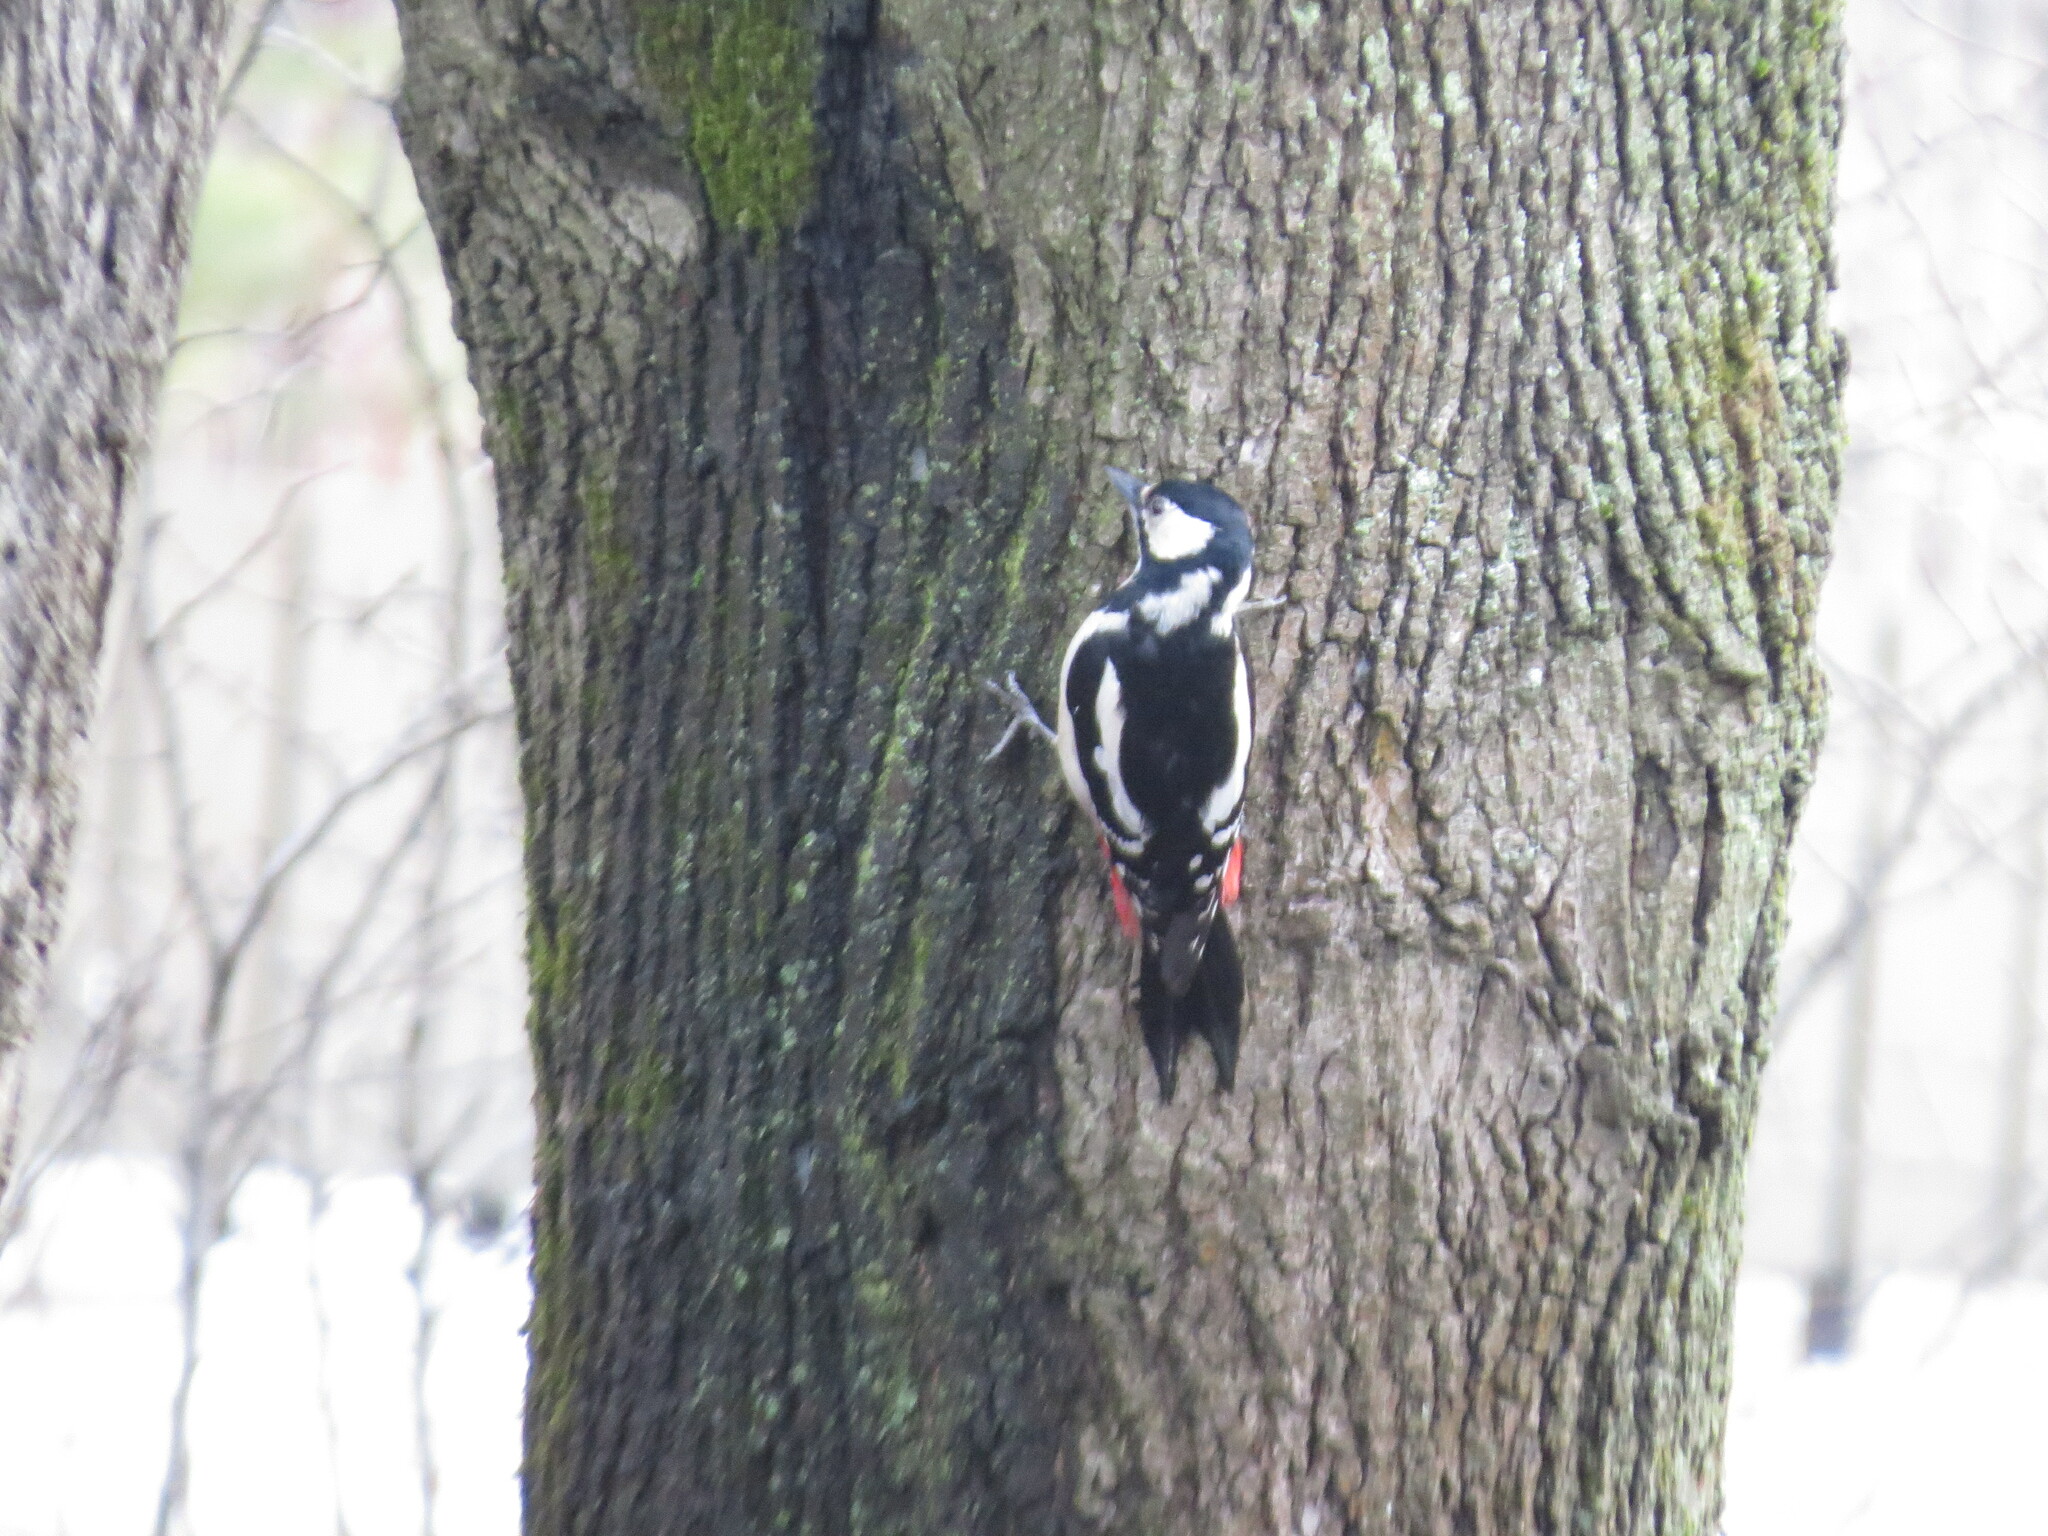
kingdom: Animalia
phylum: Chordata
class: Aves
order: Piciformes
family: Picidae
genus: Dendrocopos
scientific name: Dendrocopos major
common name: Great spotted woodpecker
